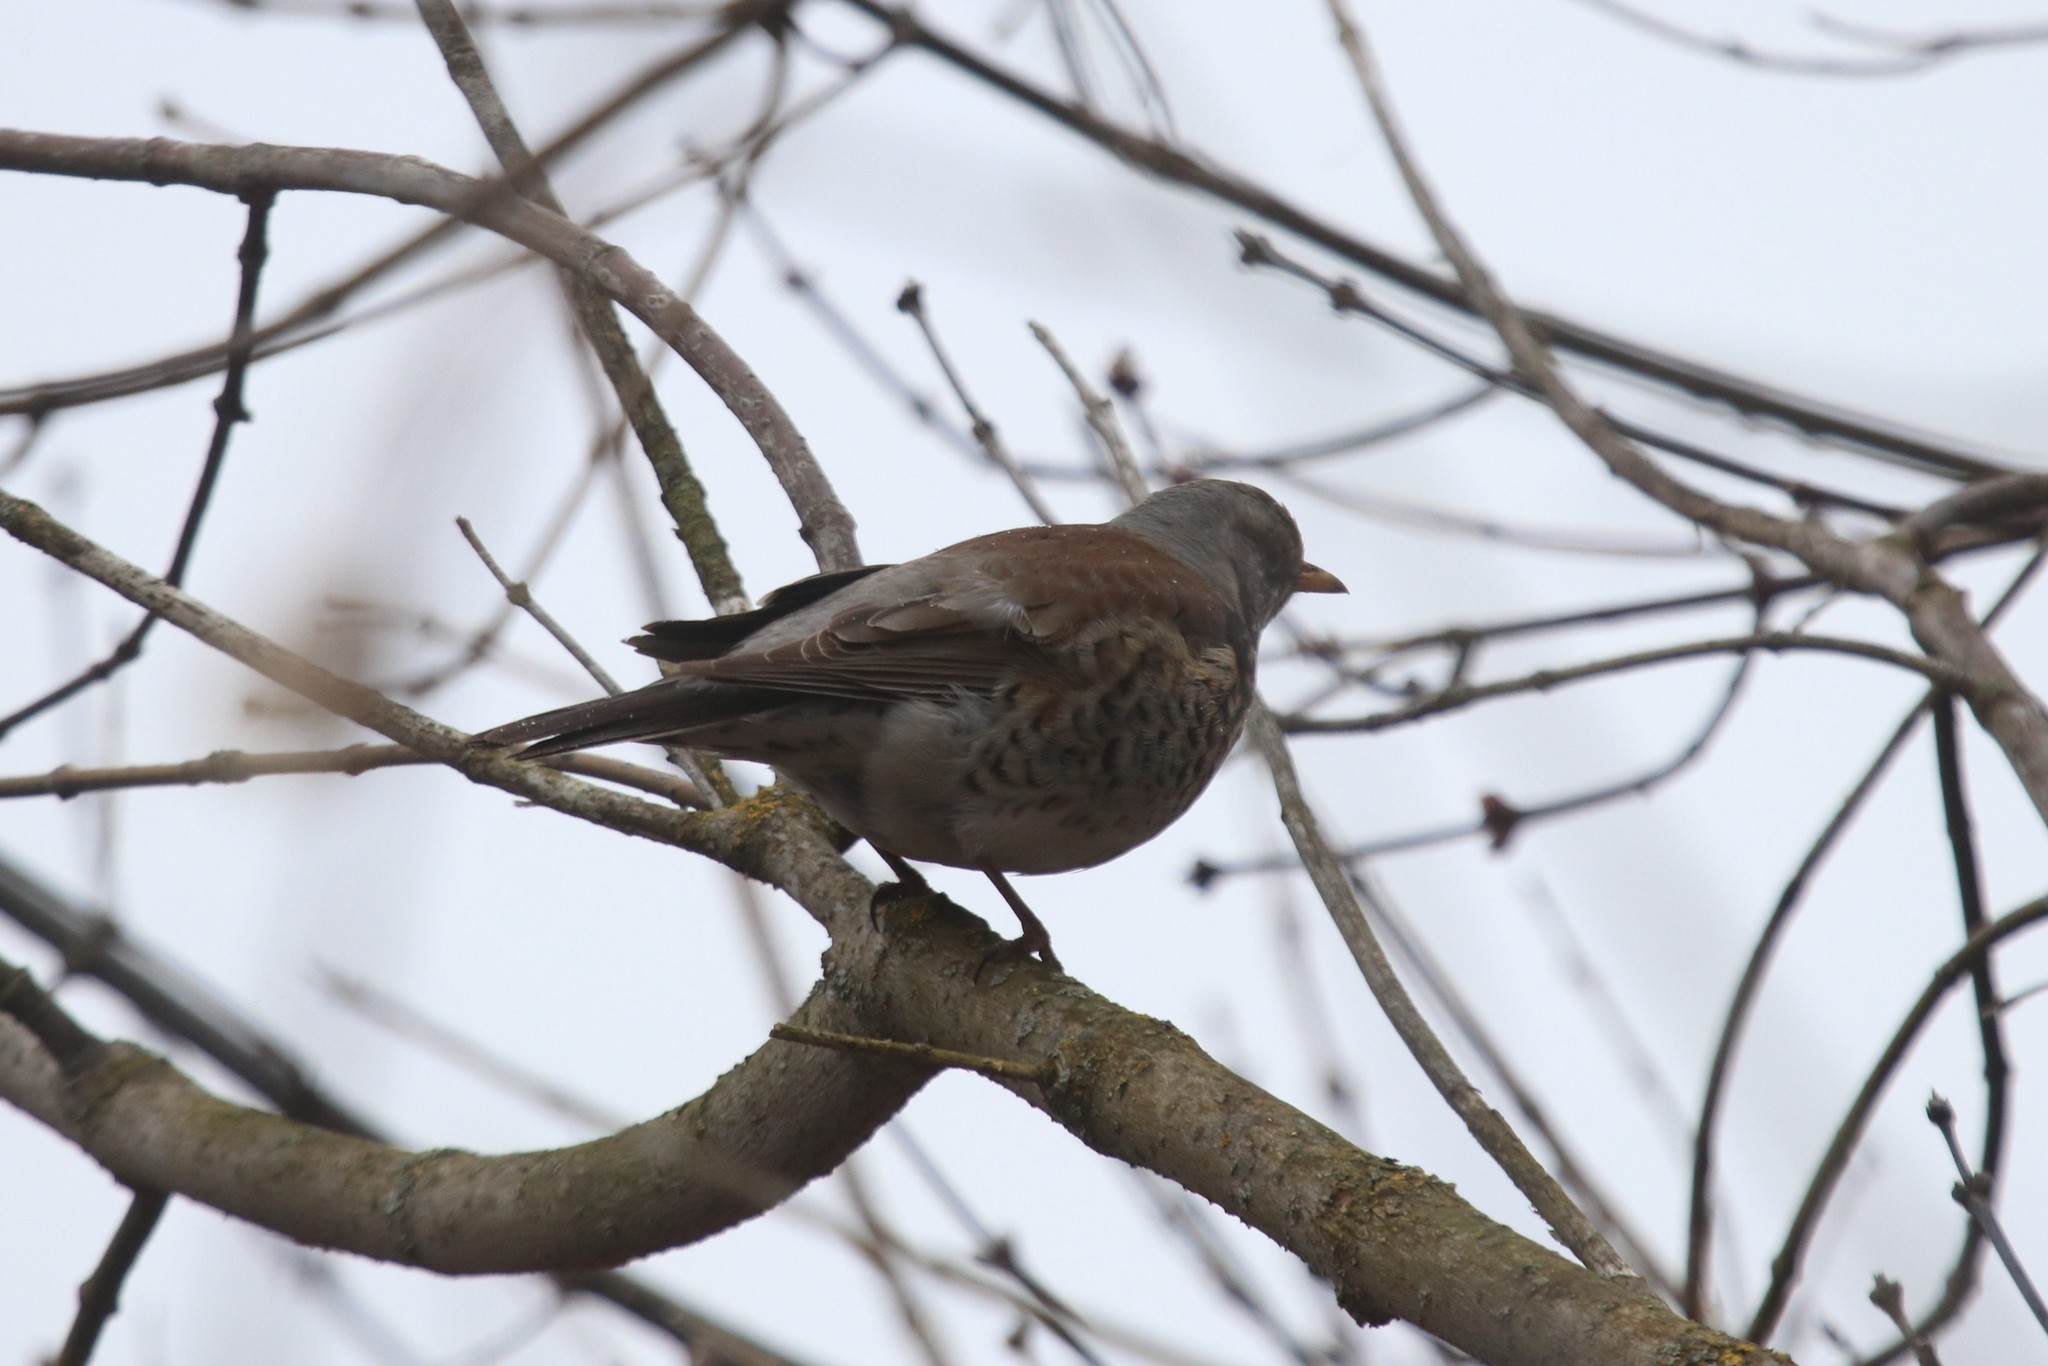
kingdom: Animalia
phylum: Chordata
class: Aves
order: Passeriformes
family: Turdidae
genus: Turdus
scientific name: Turdus pilaris
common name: Fieldfare
